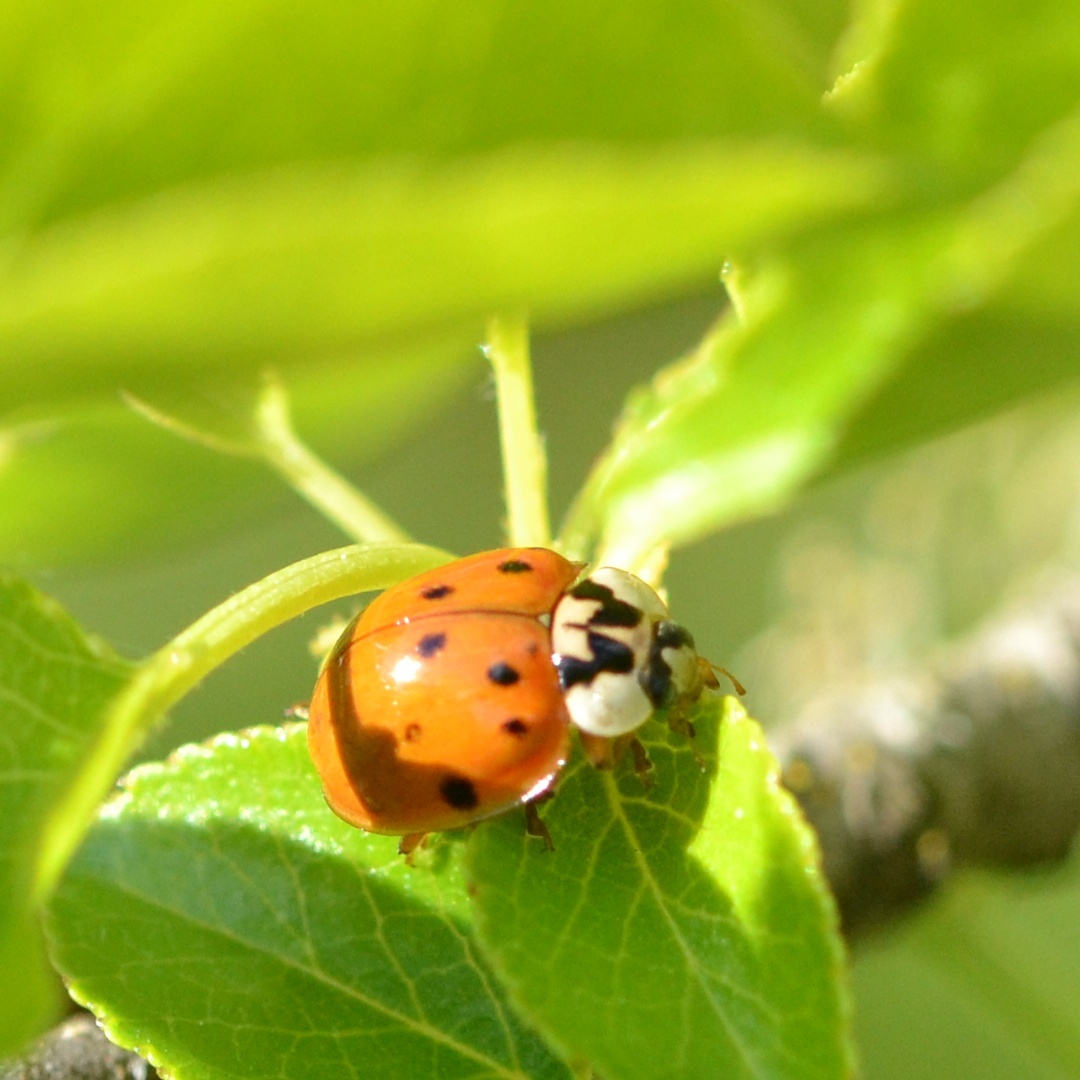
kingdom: Animalia
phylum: Arthropoda
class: Insecta
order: Coleoptera
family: Coccinellidae
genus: Harmonia
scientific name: Harmonia axyridis
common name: Harlequin ladybird
